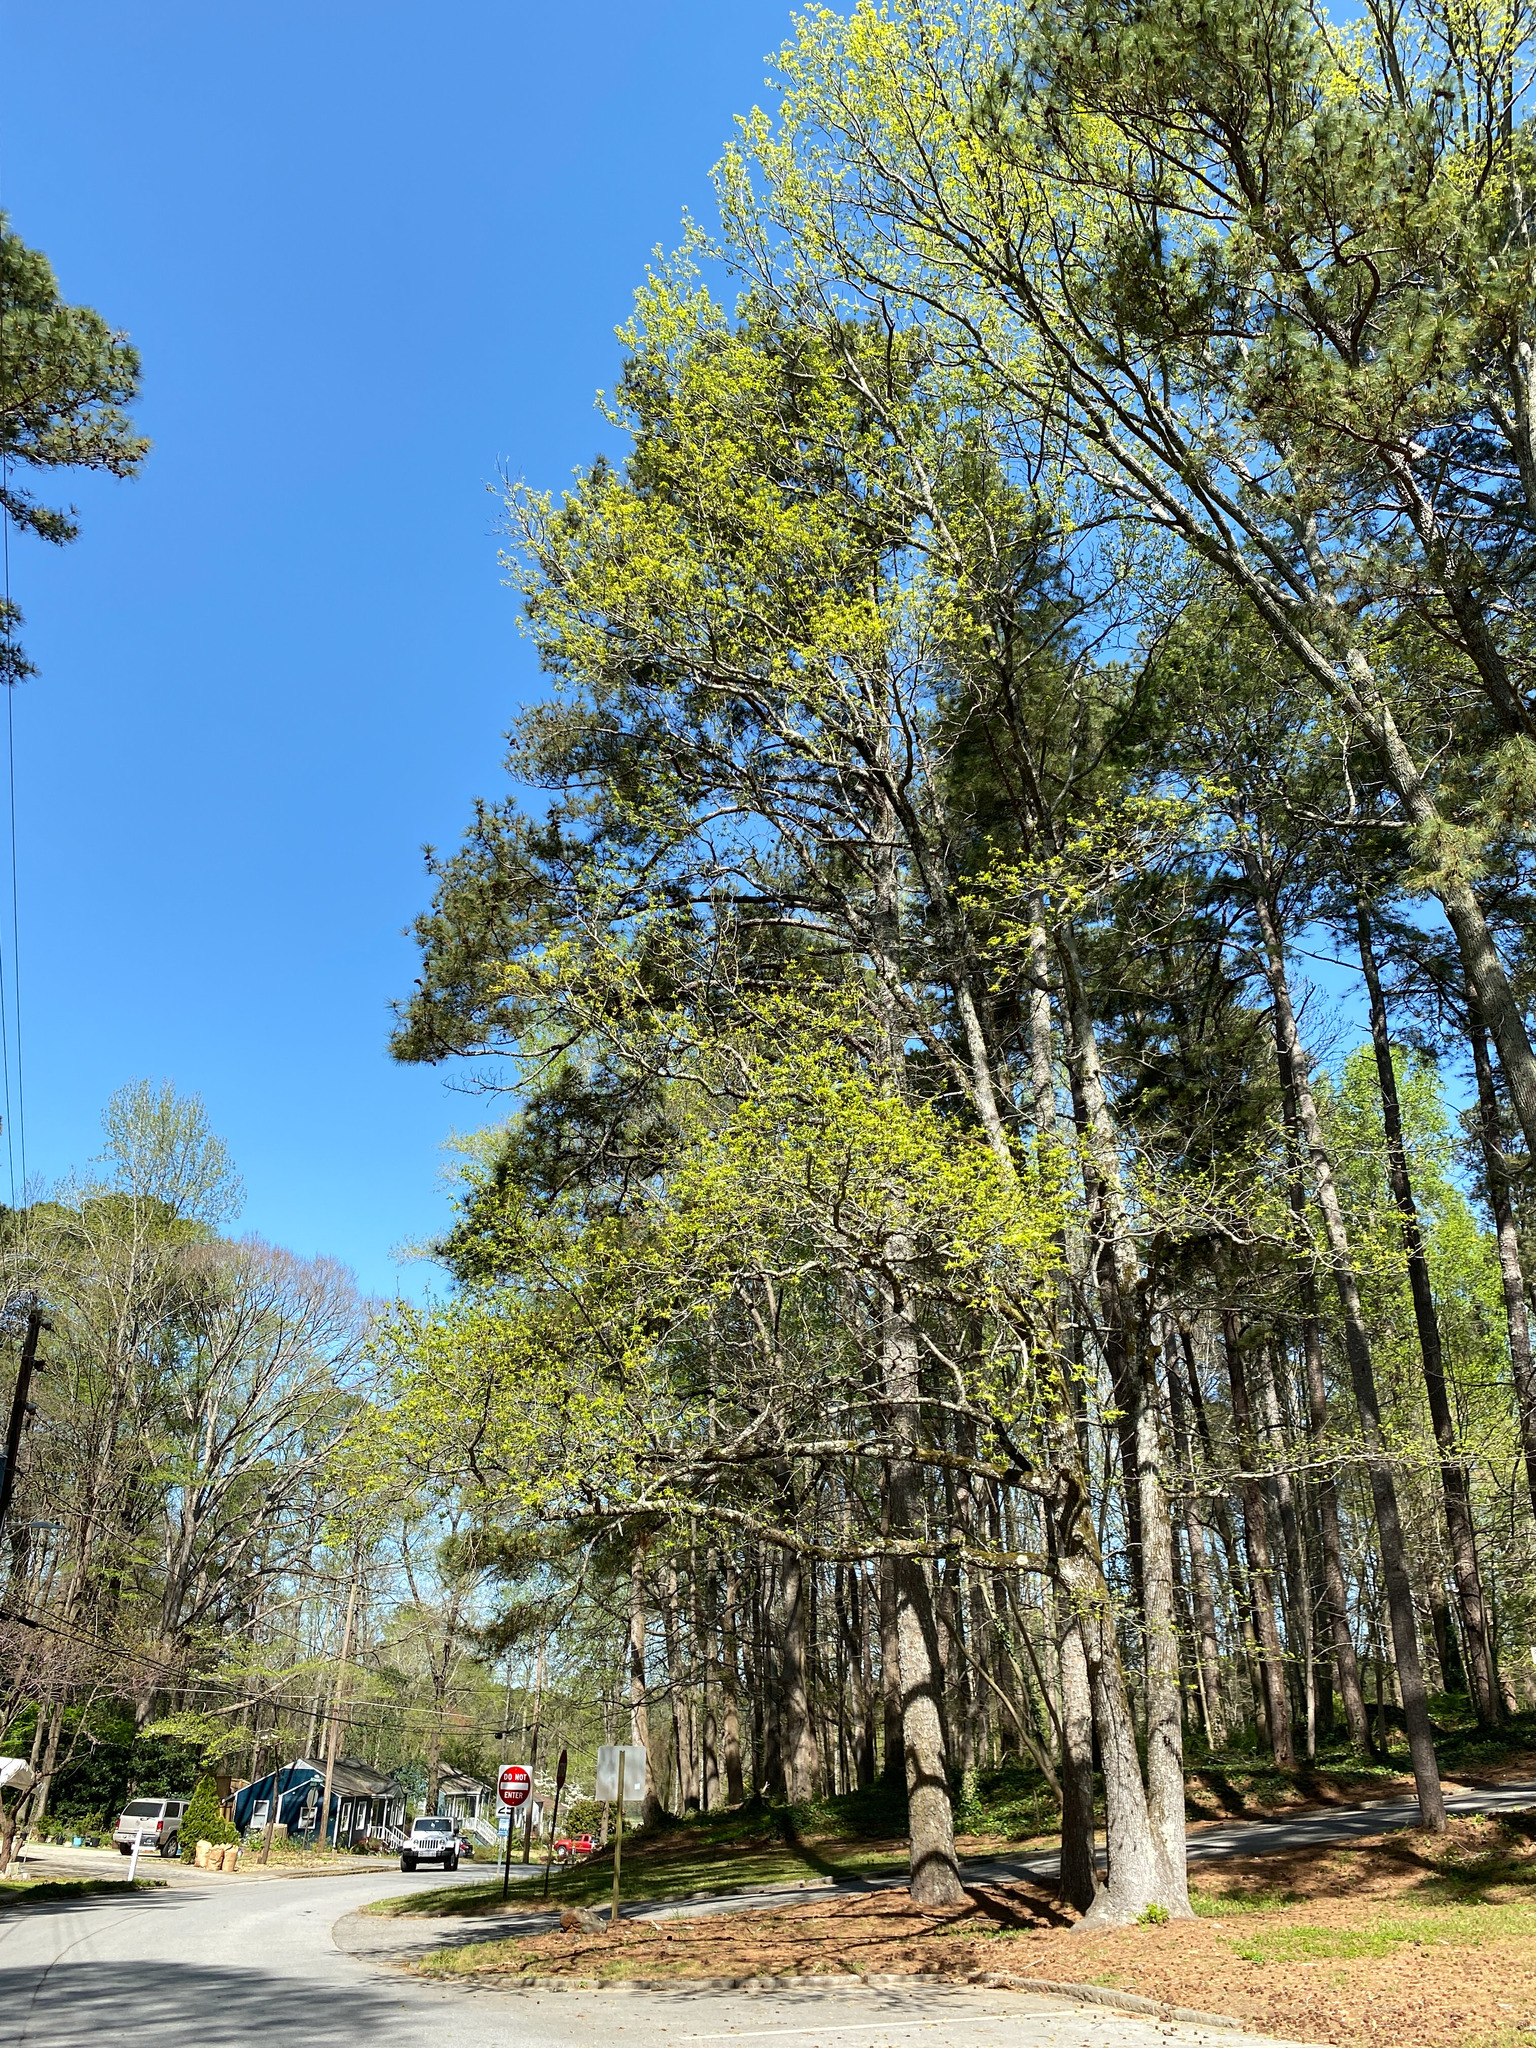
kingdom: Plantae
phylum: Tracheophyta
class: Magnoliopsida
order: Saxifragales
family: Altingiaceae
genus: Liquidambar
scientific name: Liquidambar styraciflua
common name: Sweet gum
